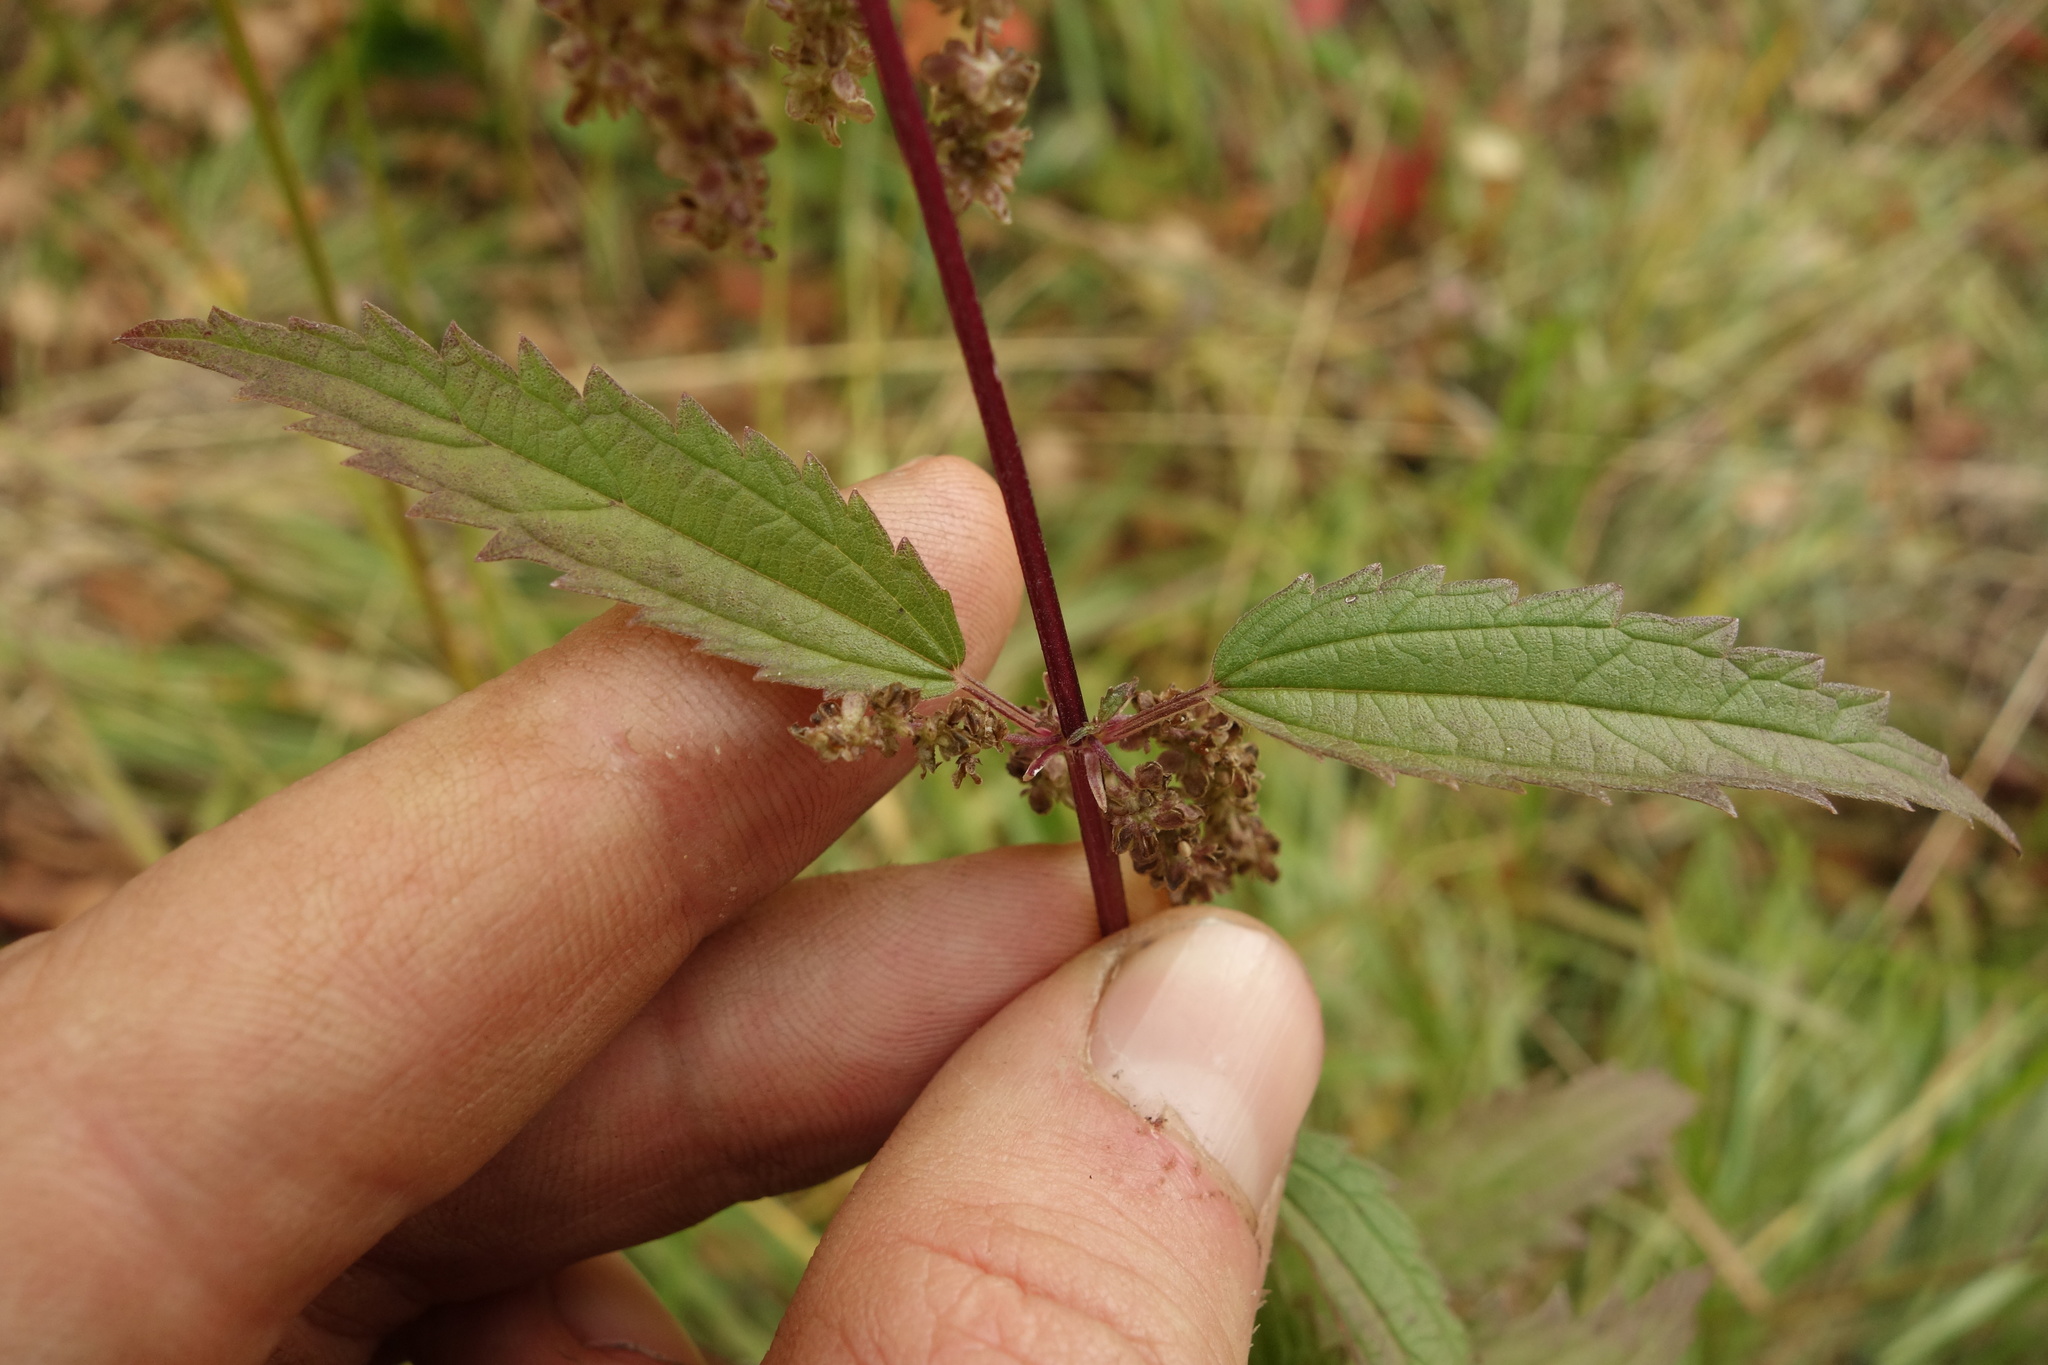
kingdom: Plantae
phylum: Tracheophyta
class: Magnoliopsida
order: Rosales
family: Urticaceae
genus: Urtica
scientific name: Urtica dioica
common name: Common nettle
